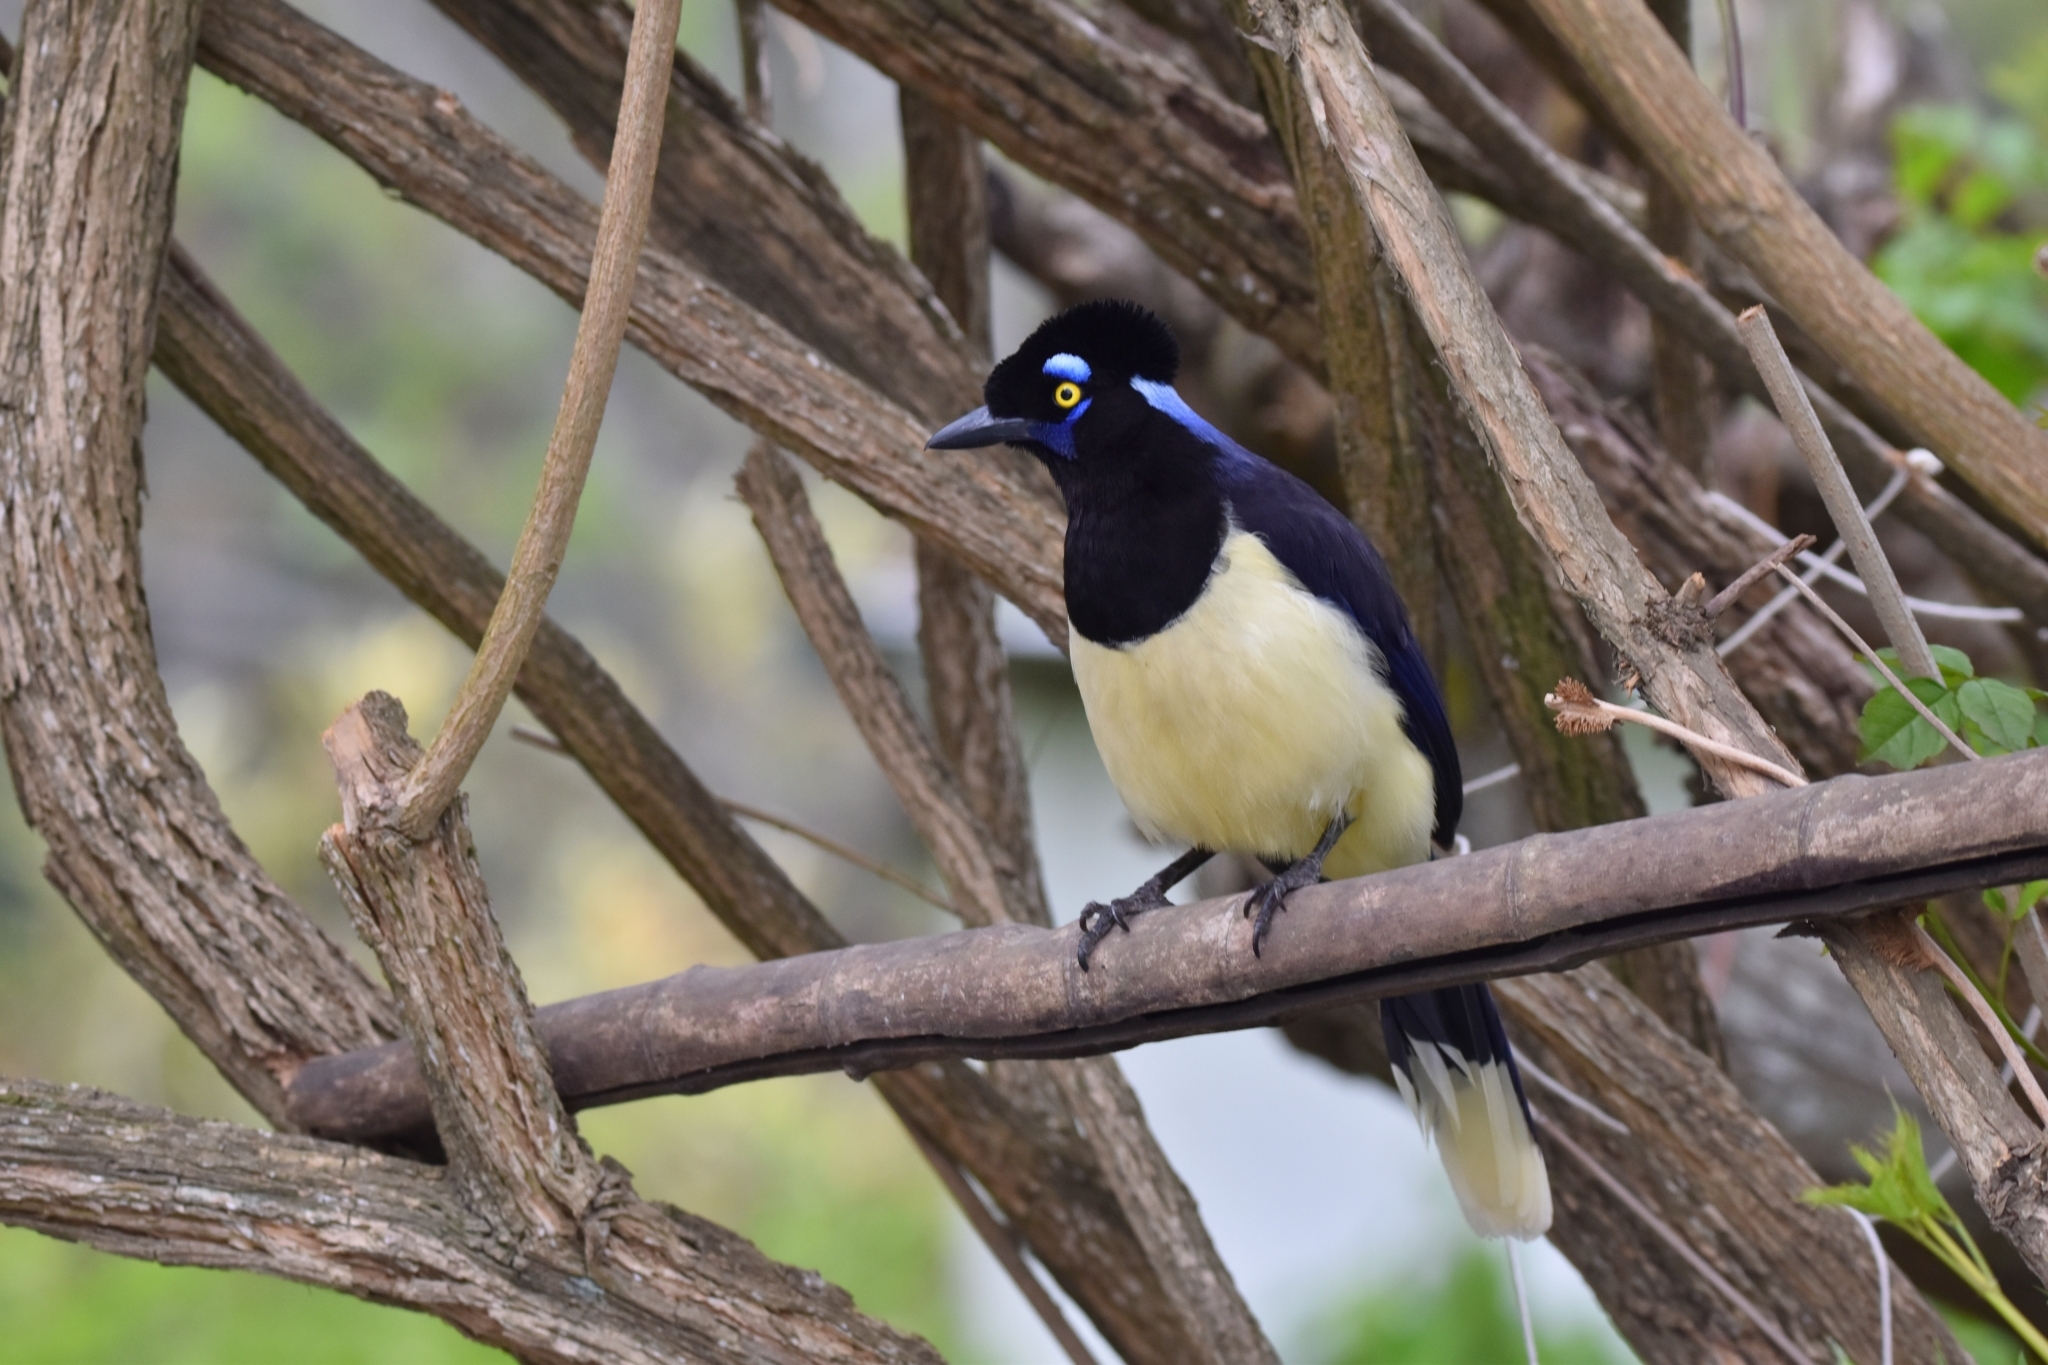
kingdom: Animalia
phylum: Chordata
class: Aves
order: Passeriformes
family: Corvidae
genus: Cyanocorax
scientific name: Cyanocorax chrysops
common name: Plush-crested jay
